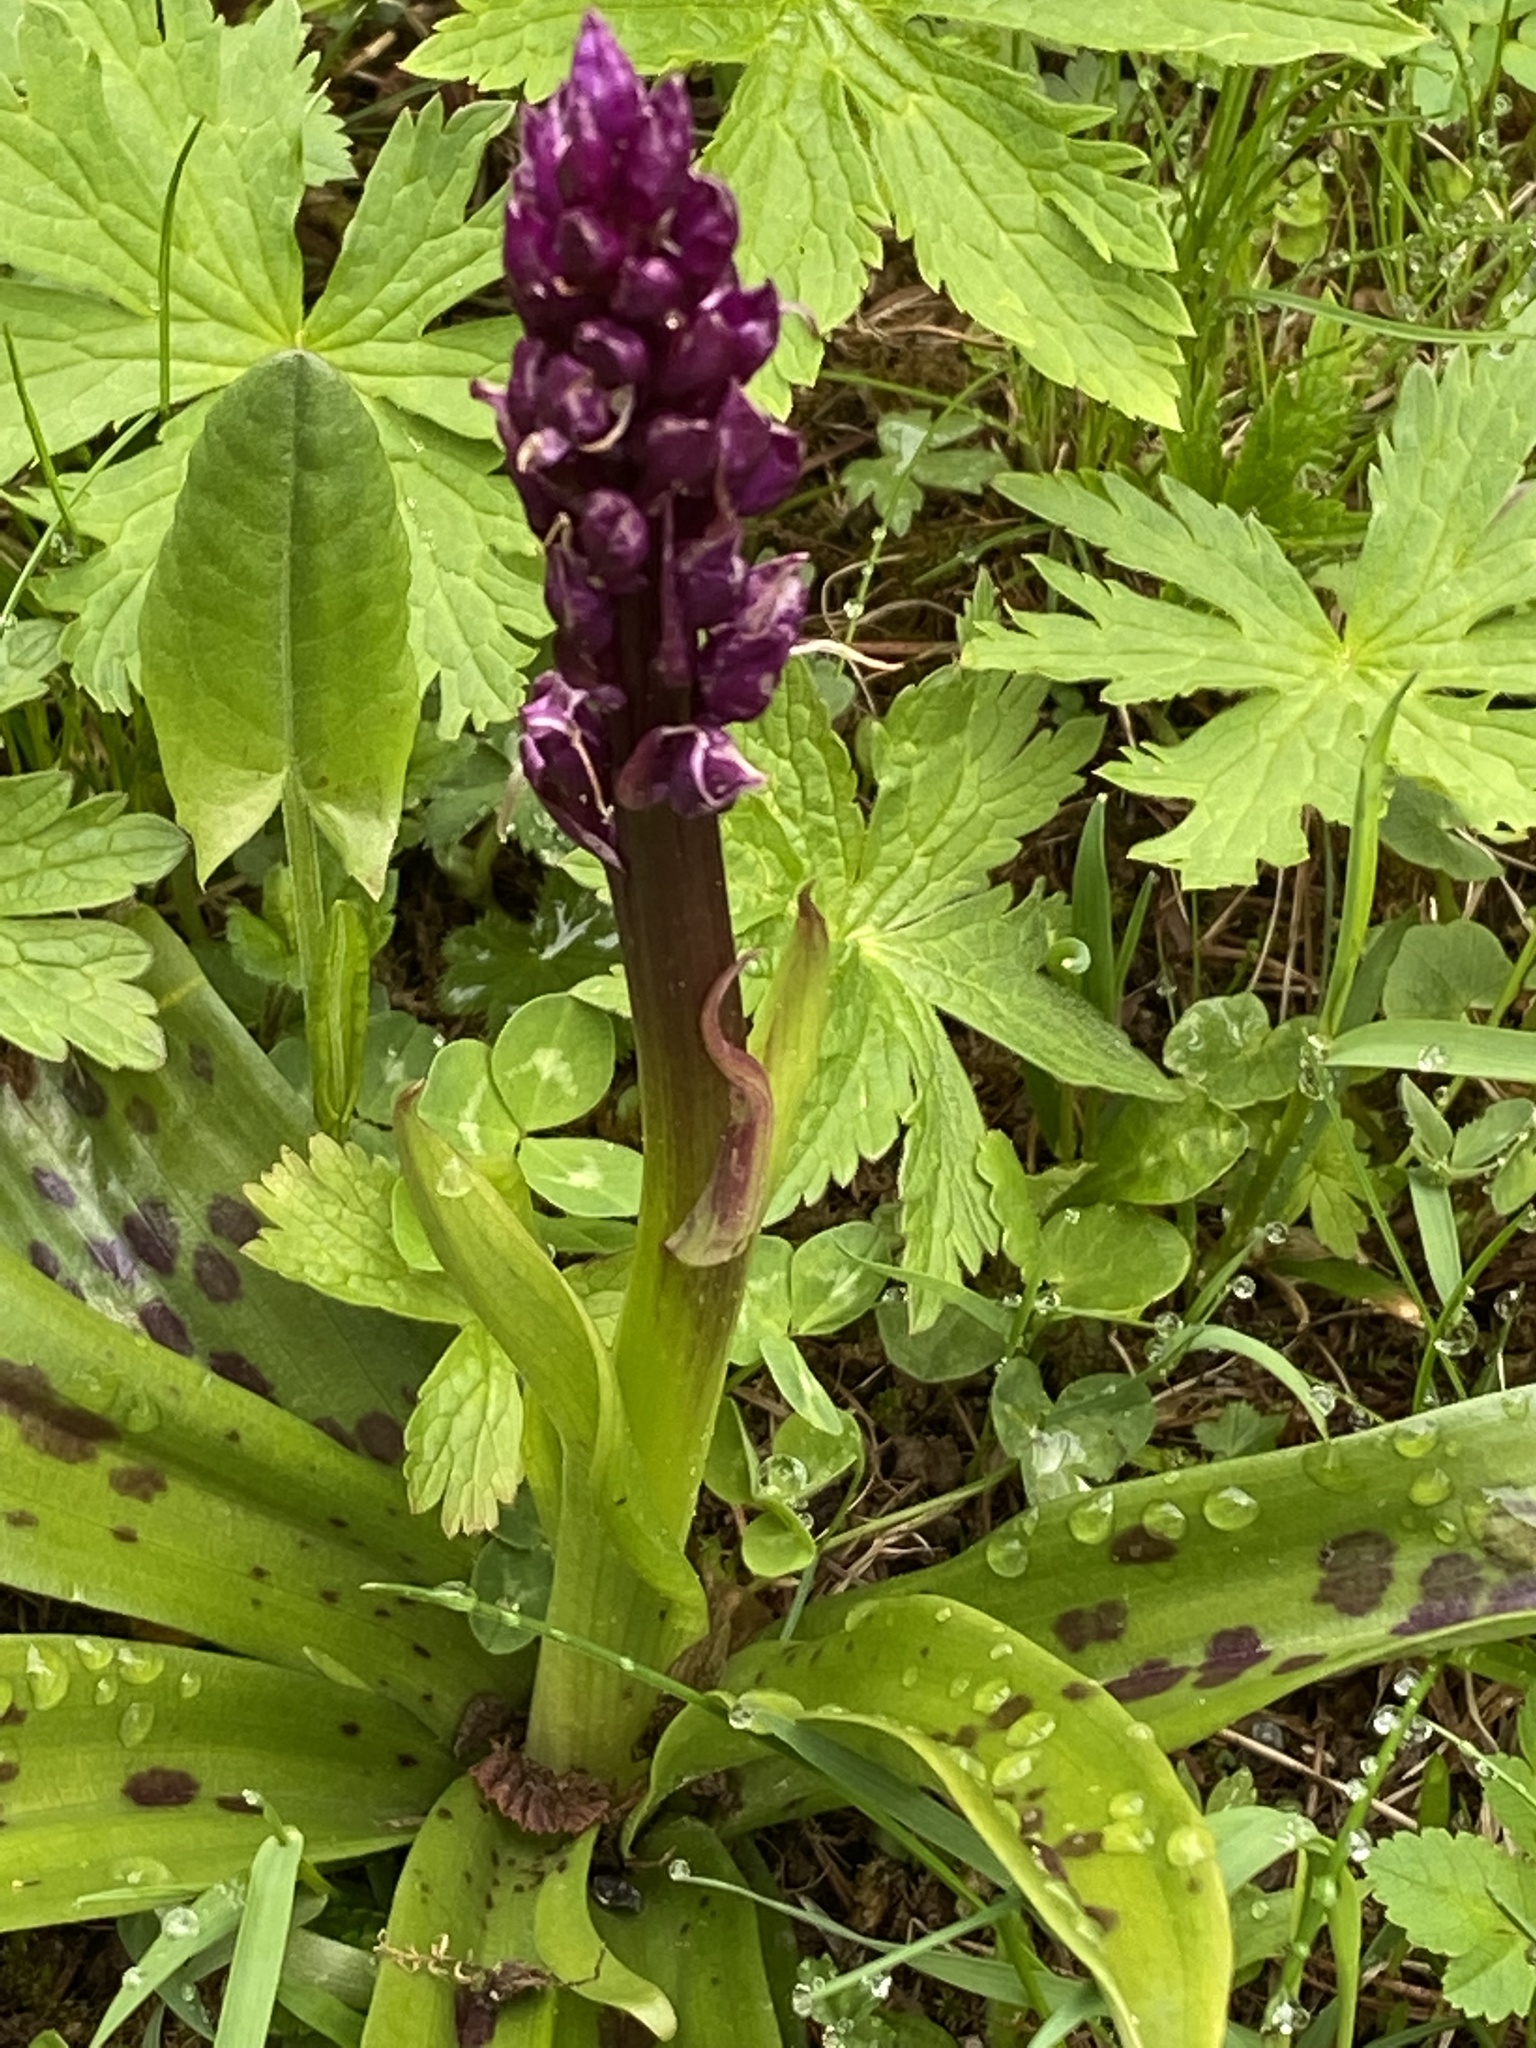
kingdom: Plantae
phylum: Tracheophyta
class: Liliopsida
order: Asparagales
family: Orchidaceae
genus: Orchis
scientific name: Orchis mascula
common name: Early-purple orchid
